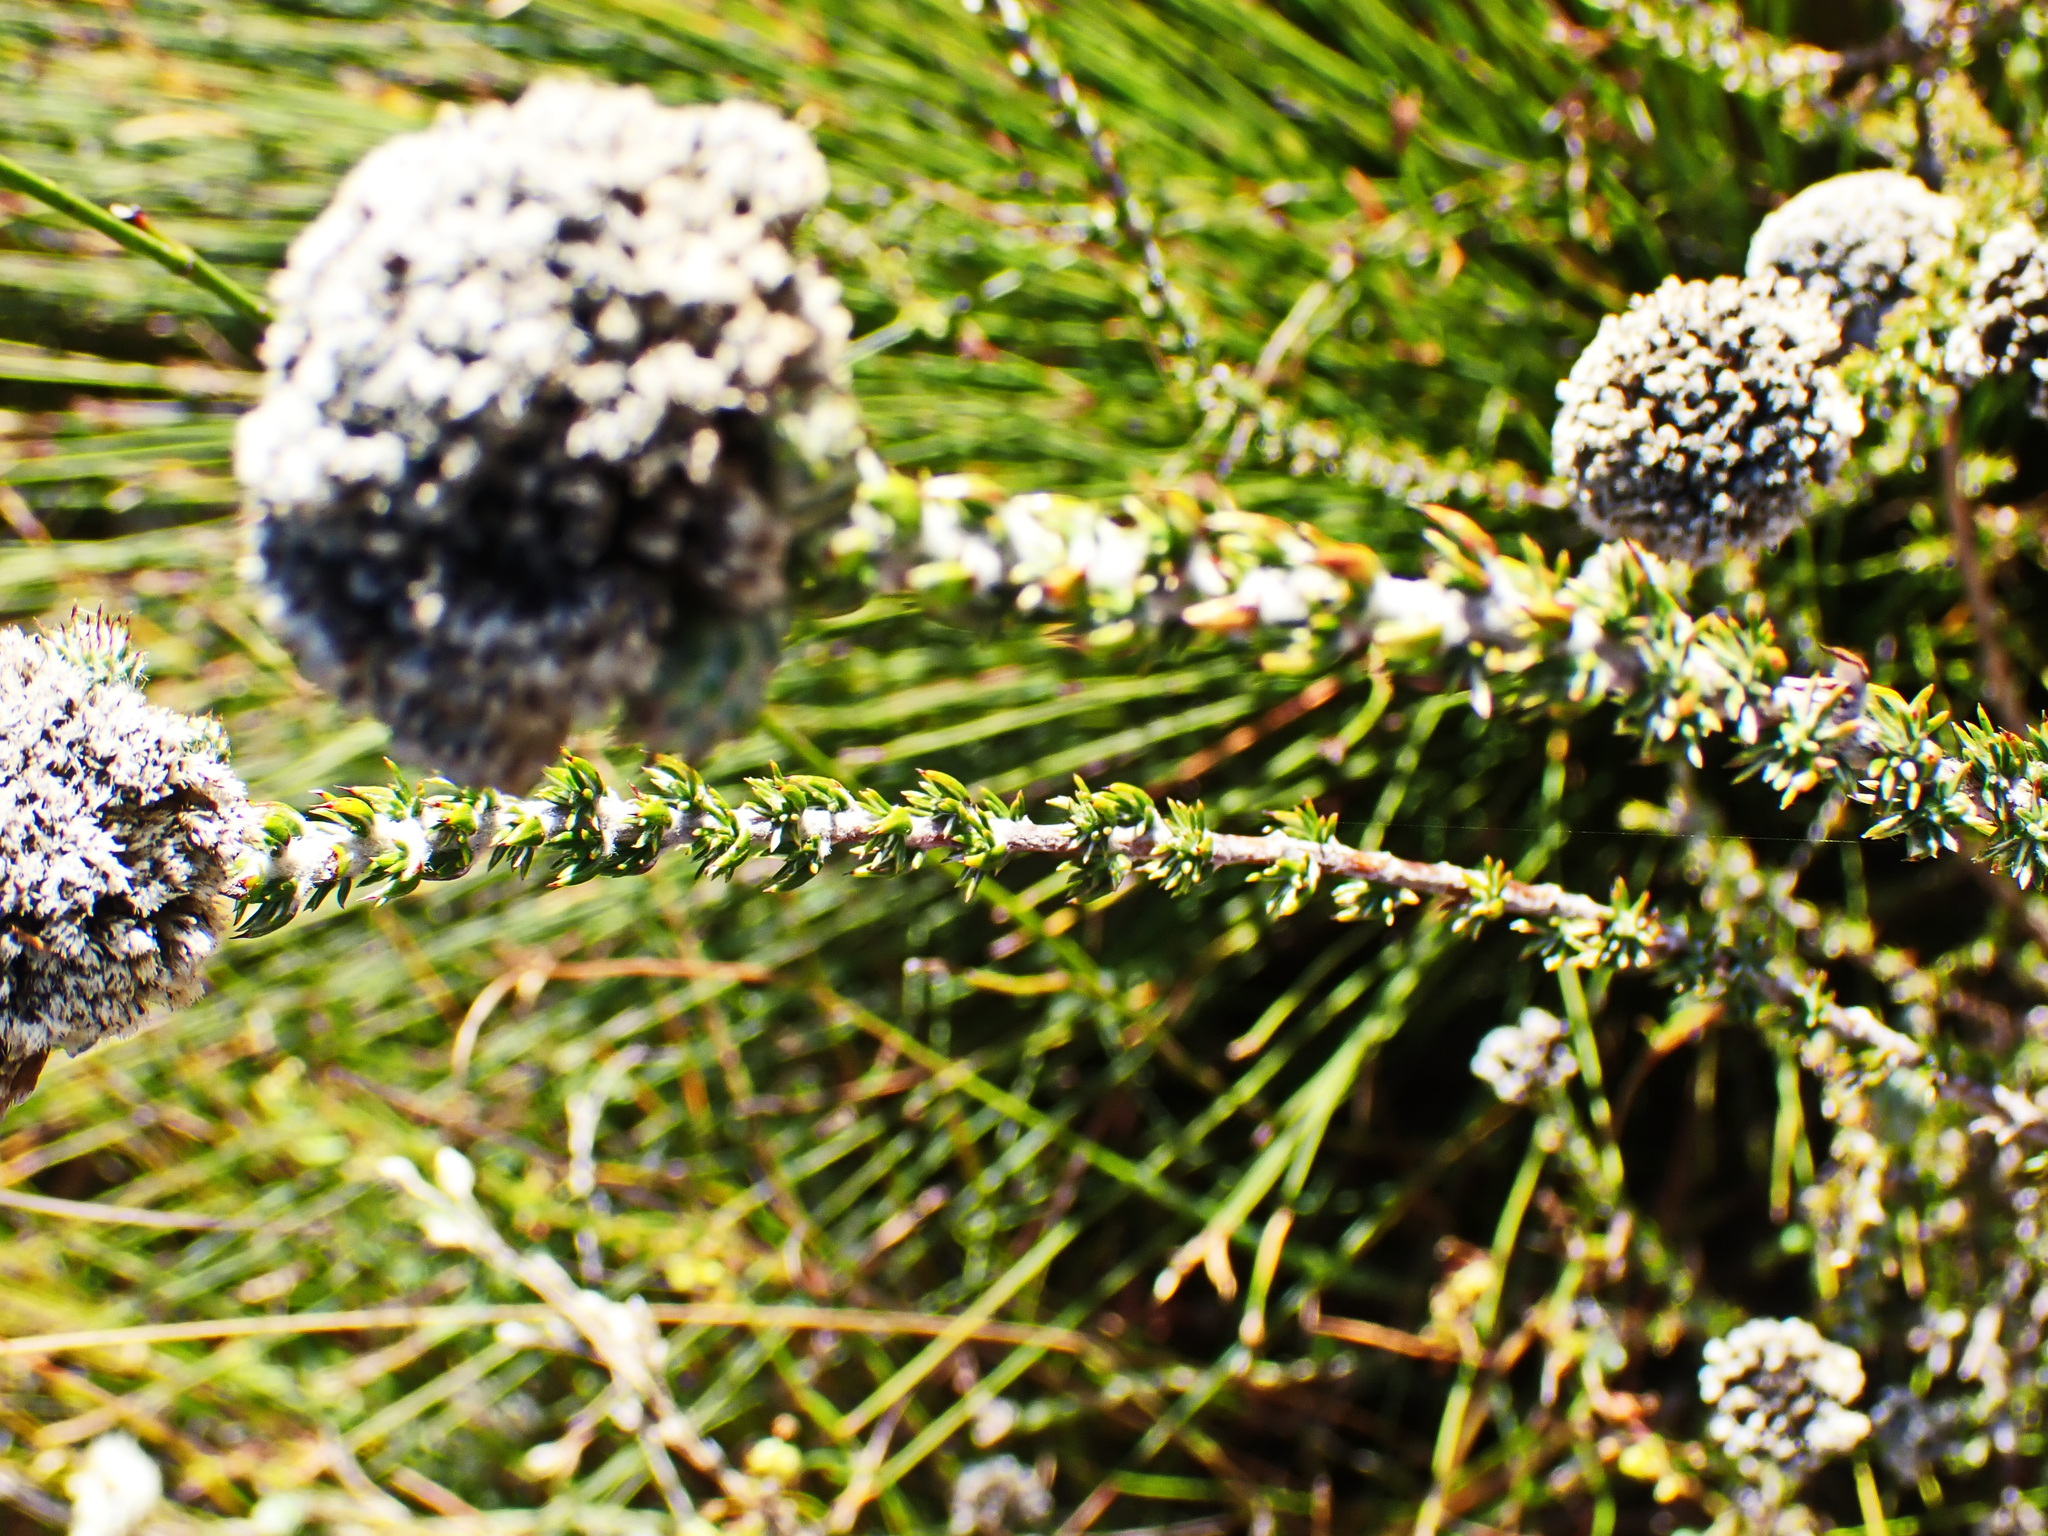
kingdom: Plantae
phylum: Tracheophyta
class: Magnoliopsida
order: Asterales
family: Asteraceae
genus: Metalasia
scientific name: Metalasia pungens
